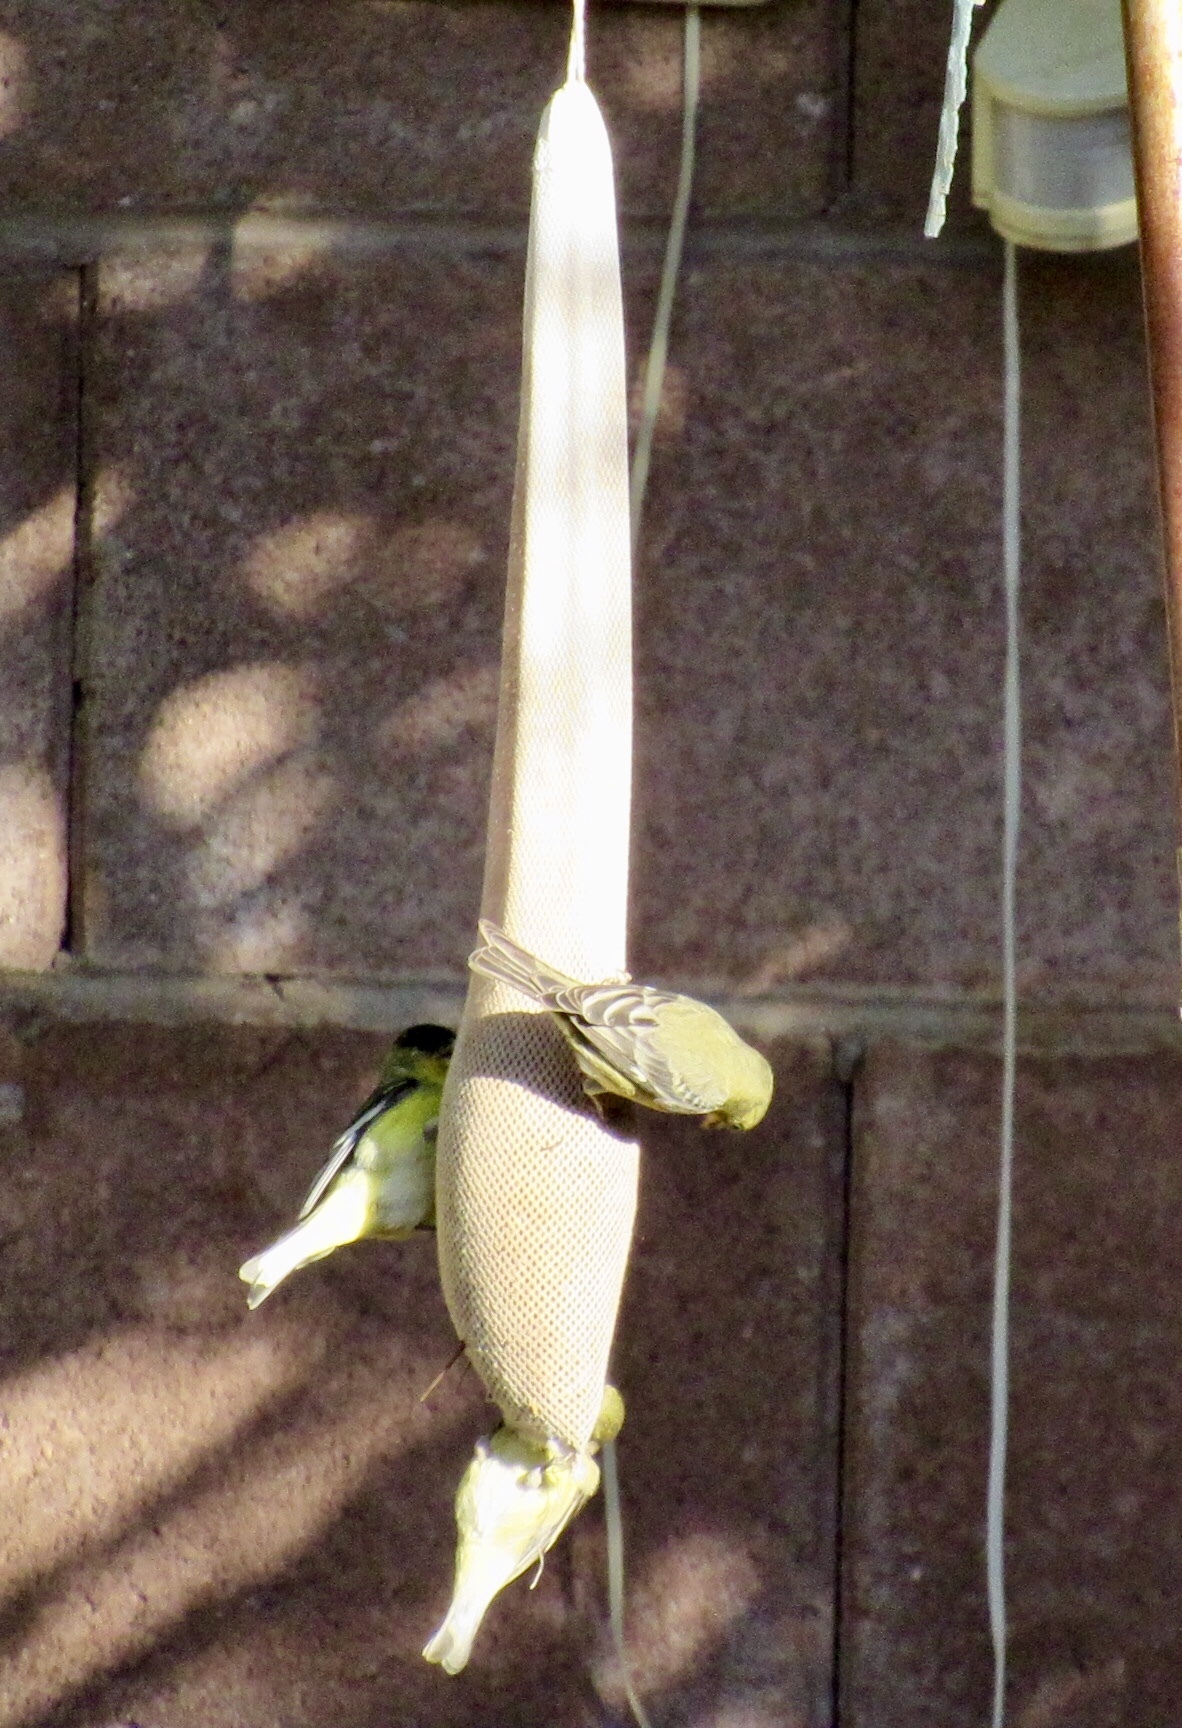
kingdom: Animalia
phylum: Chordata
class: Aves
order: Passeriformes
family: Fringillidae
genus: Spinus
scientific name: Spinus psaltria
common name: Lesser goldfinch
